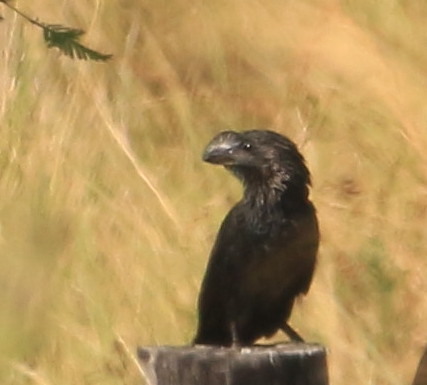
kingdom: Animalia
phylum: Chordata
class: Aves
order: Cuculiformes
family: Cuculidae
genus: Crotophaga
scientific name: Crotophaga ani
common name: Smooth-billed ani
